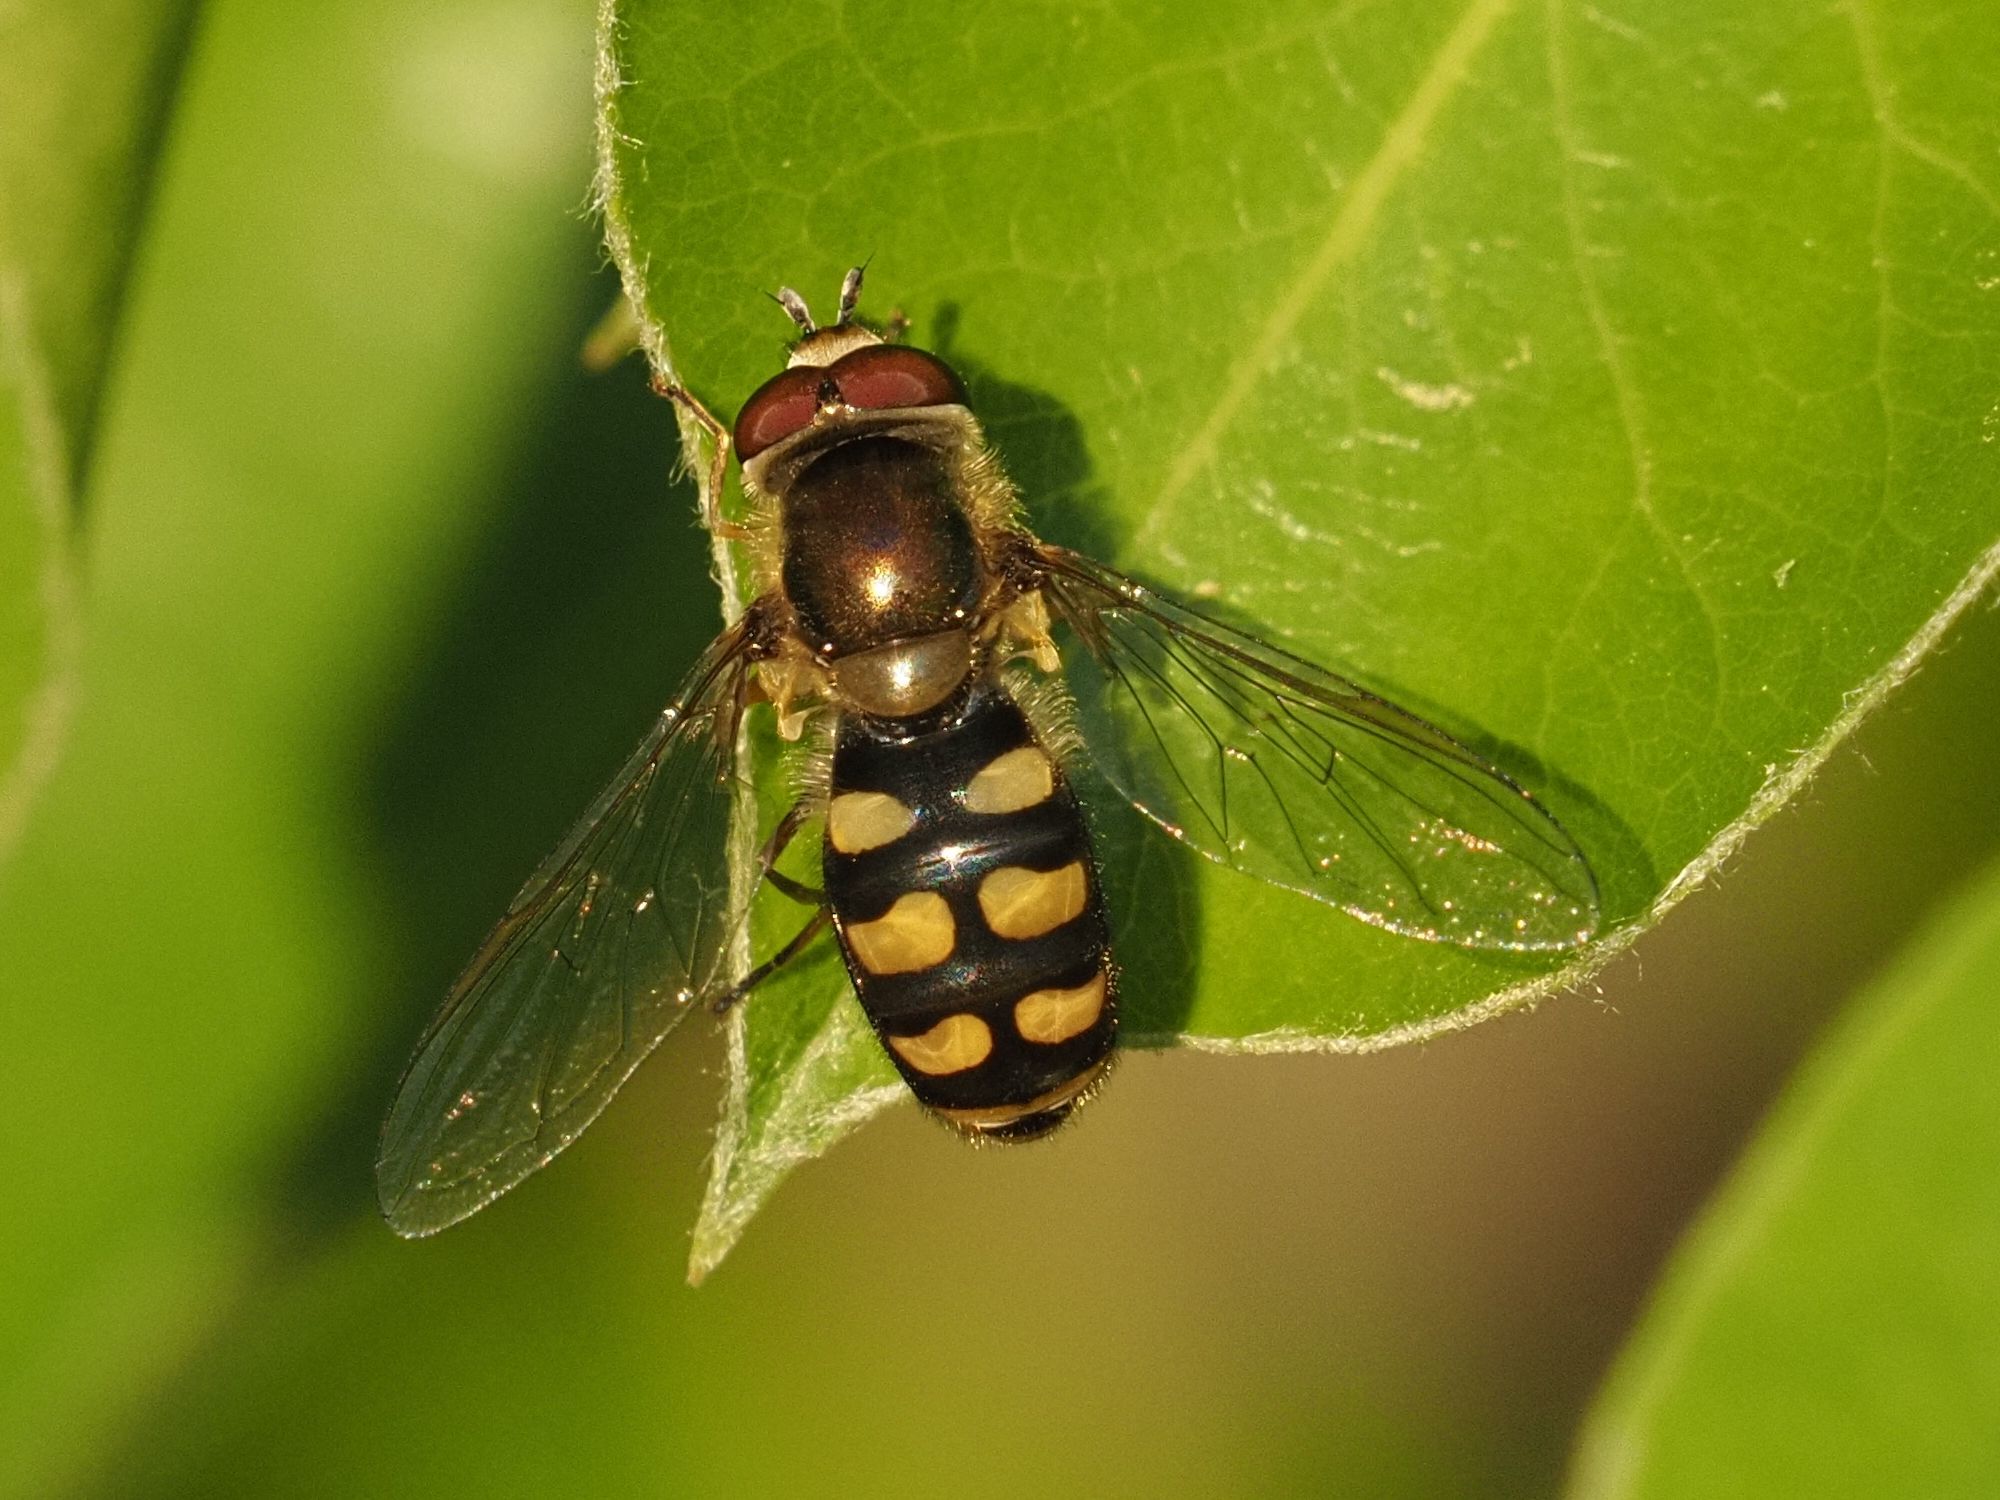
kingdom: Animalia
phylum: Arthropoda
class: Insecta
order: Diptera
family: Syrphidae
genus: Eupeodes
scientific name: Eupeodes luniger
